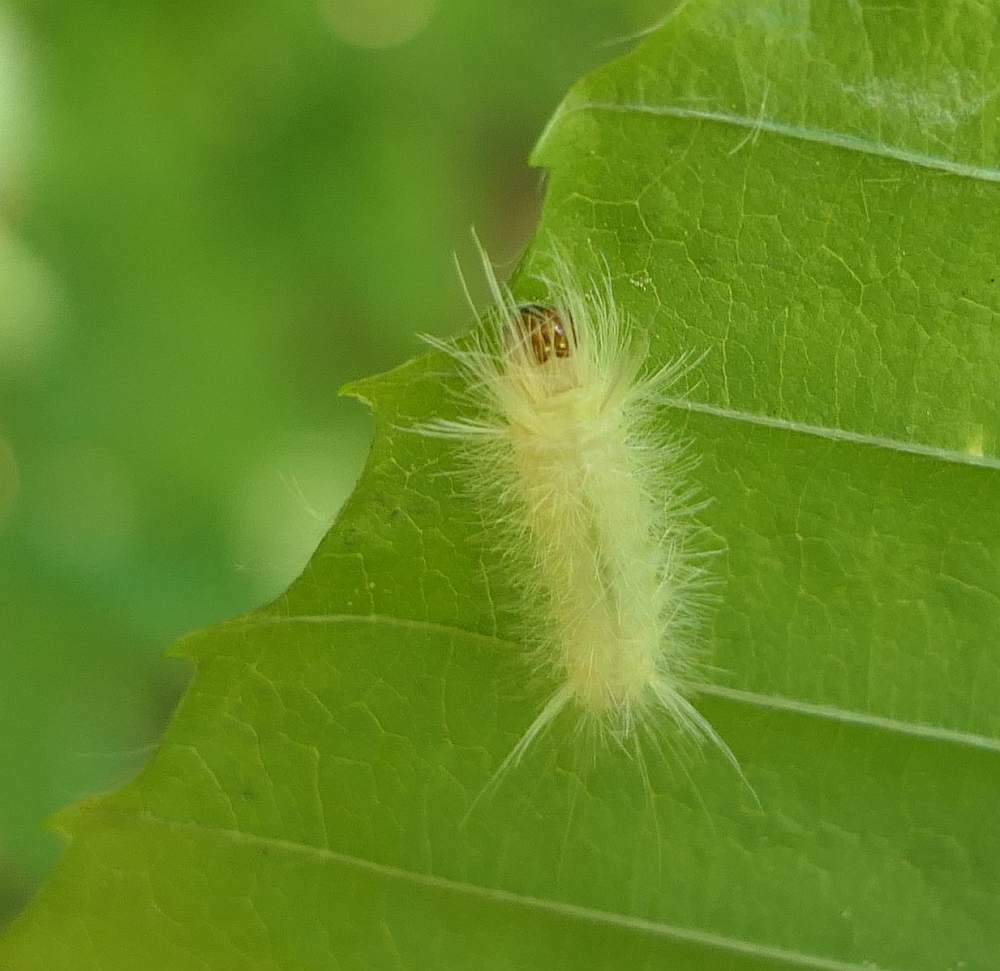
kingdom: Animalia
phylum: Arthropoda
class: Insecta
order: Lepidoptera
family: Erebidae
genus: Halysidota
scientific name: Halysidota tessellaris
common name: Banded tussock moth
